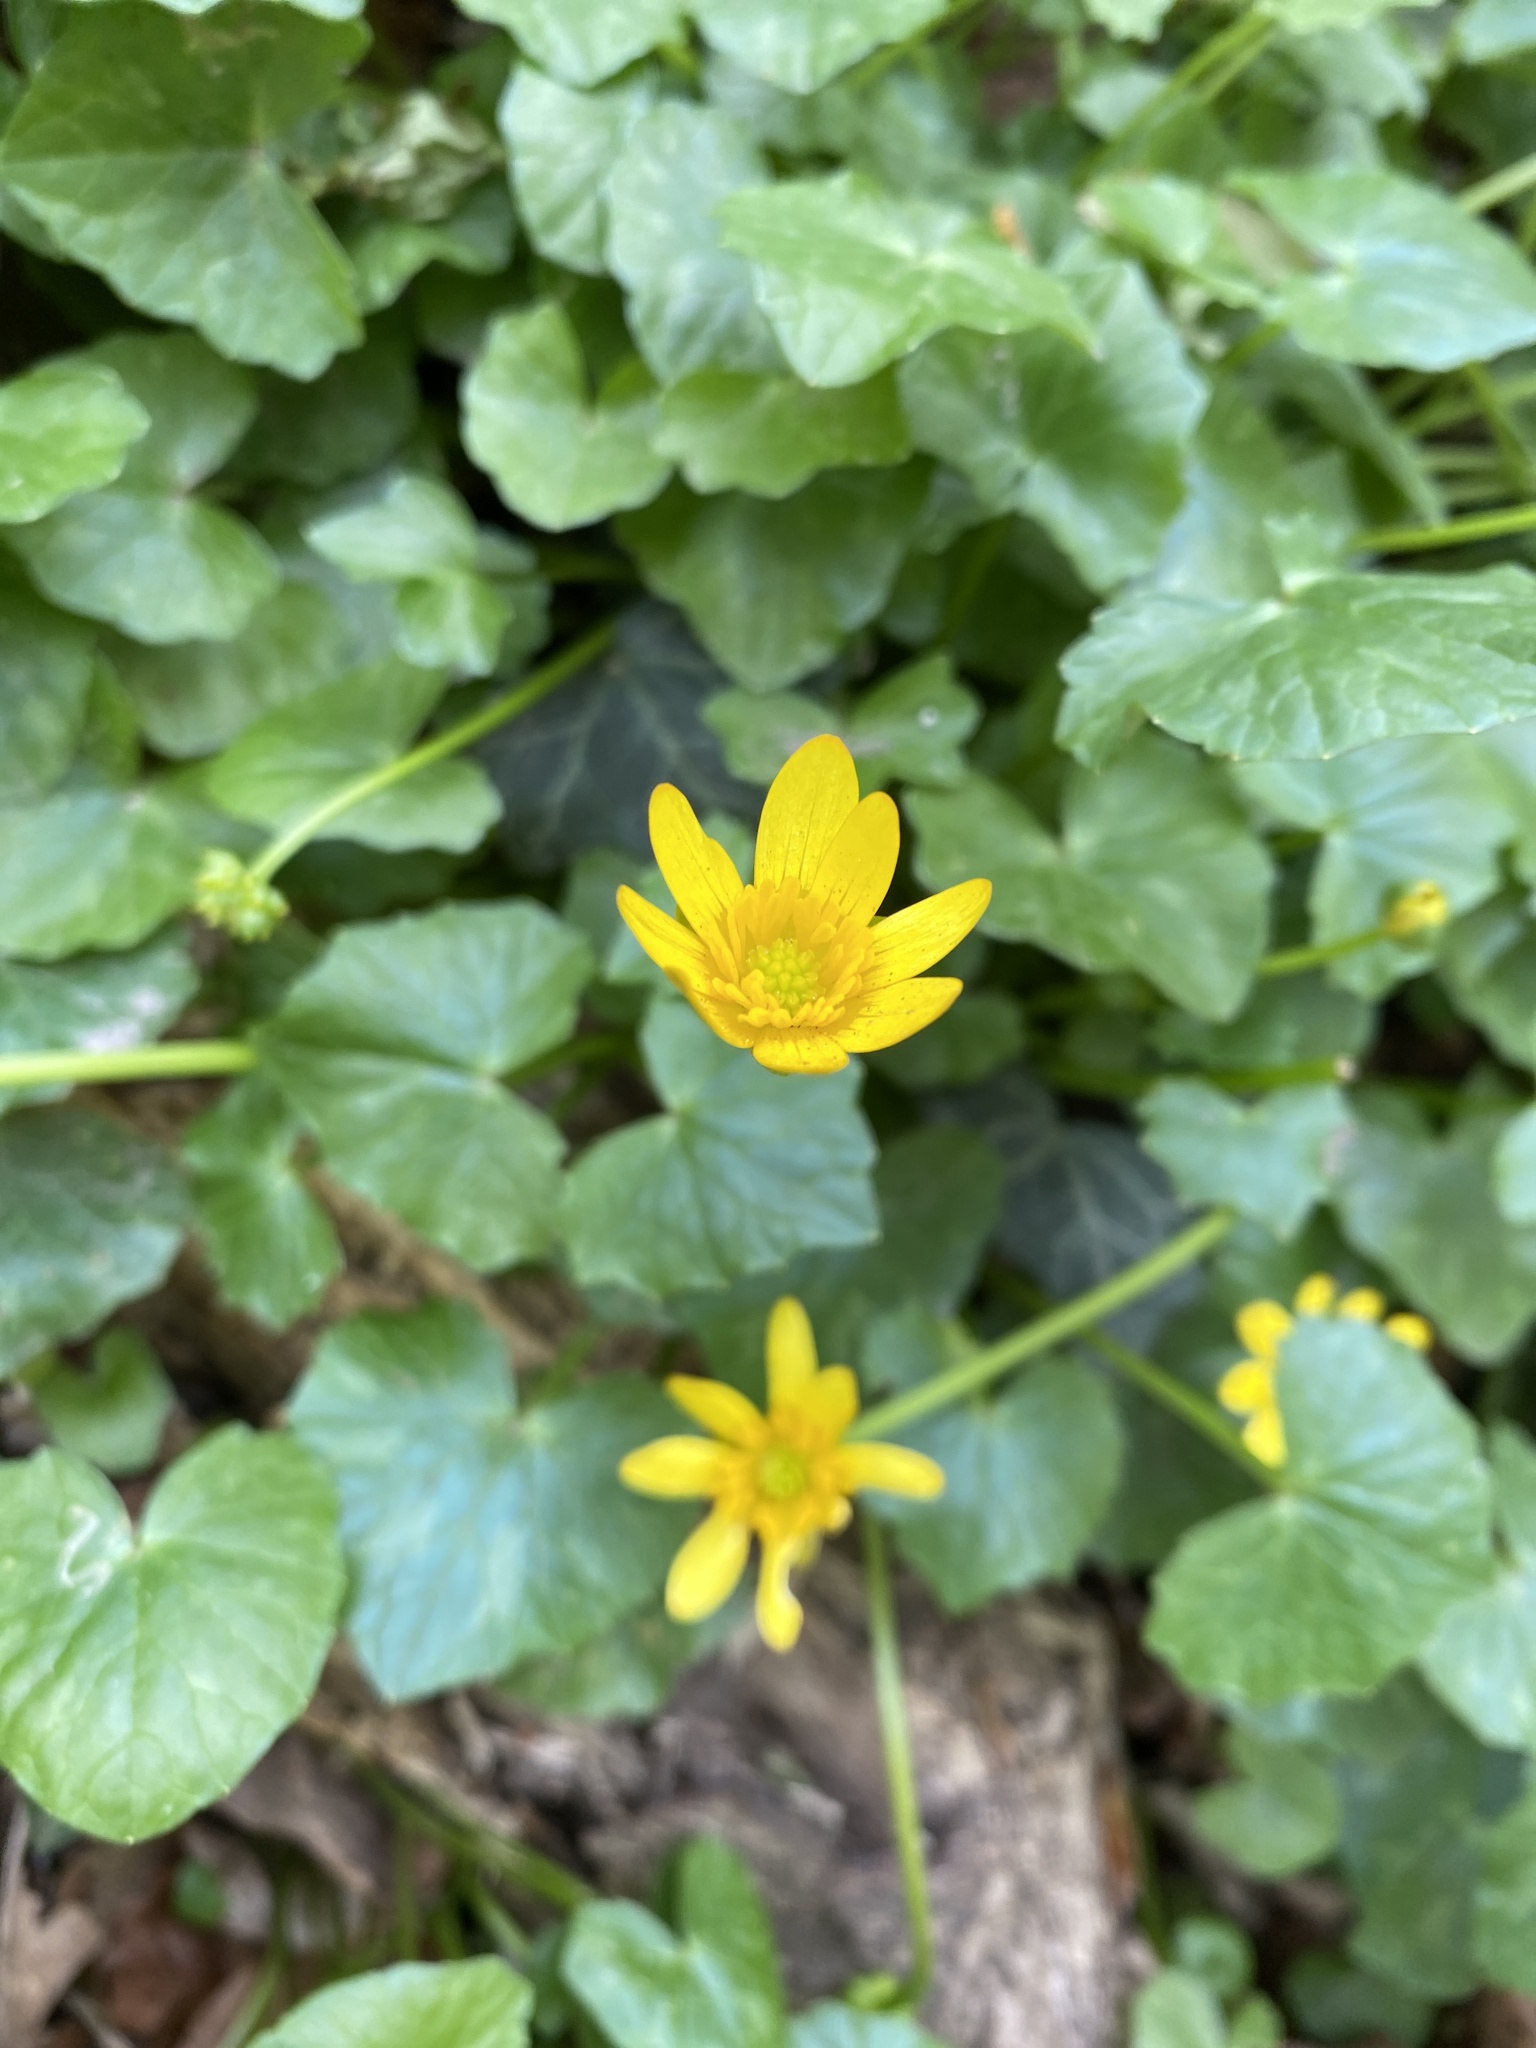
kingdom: Plantae
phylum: Tracheophyta
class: Magnoliopsida
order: Ranunculales
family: Ranunculaceae
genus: Ficaria
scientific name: Ficaria verna
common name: Lesser celandine
